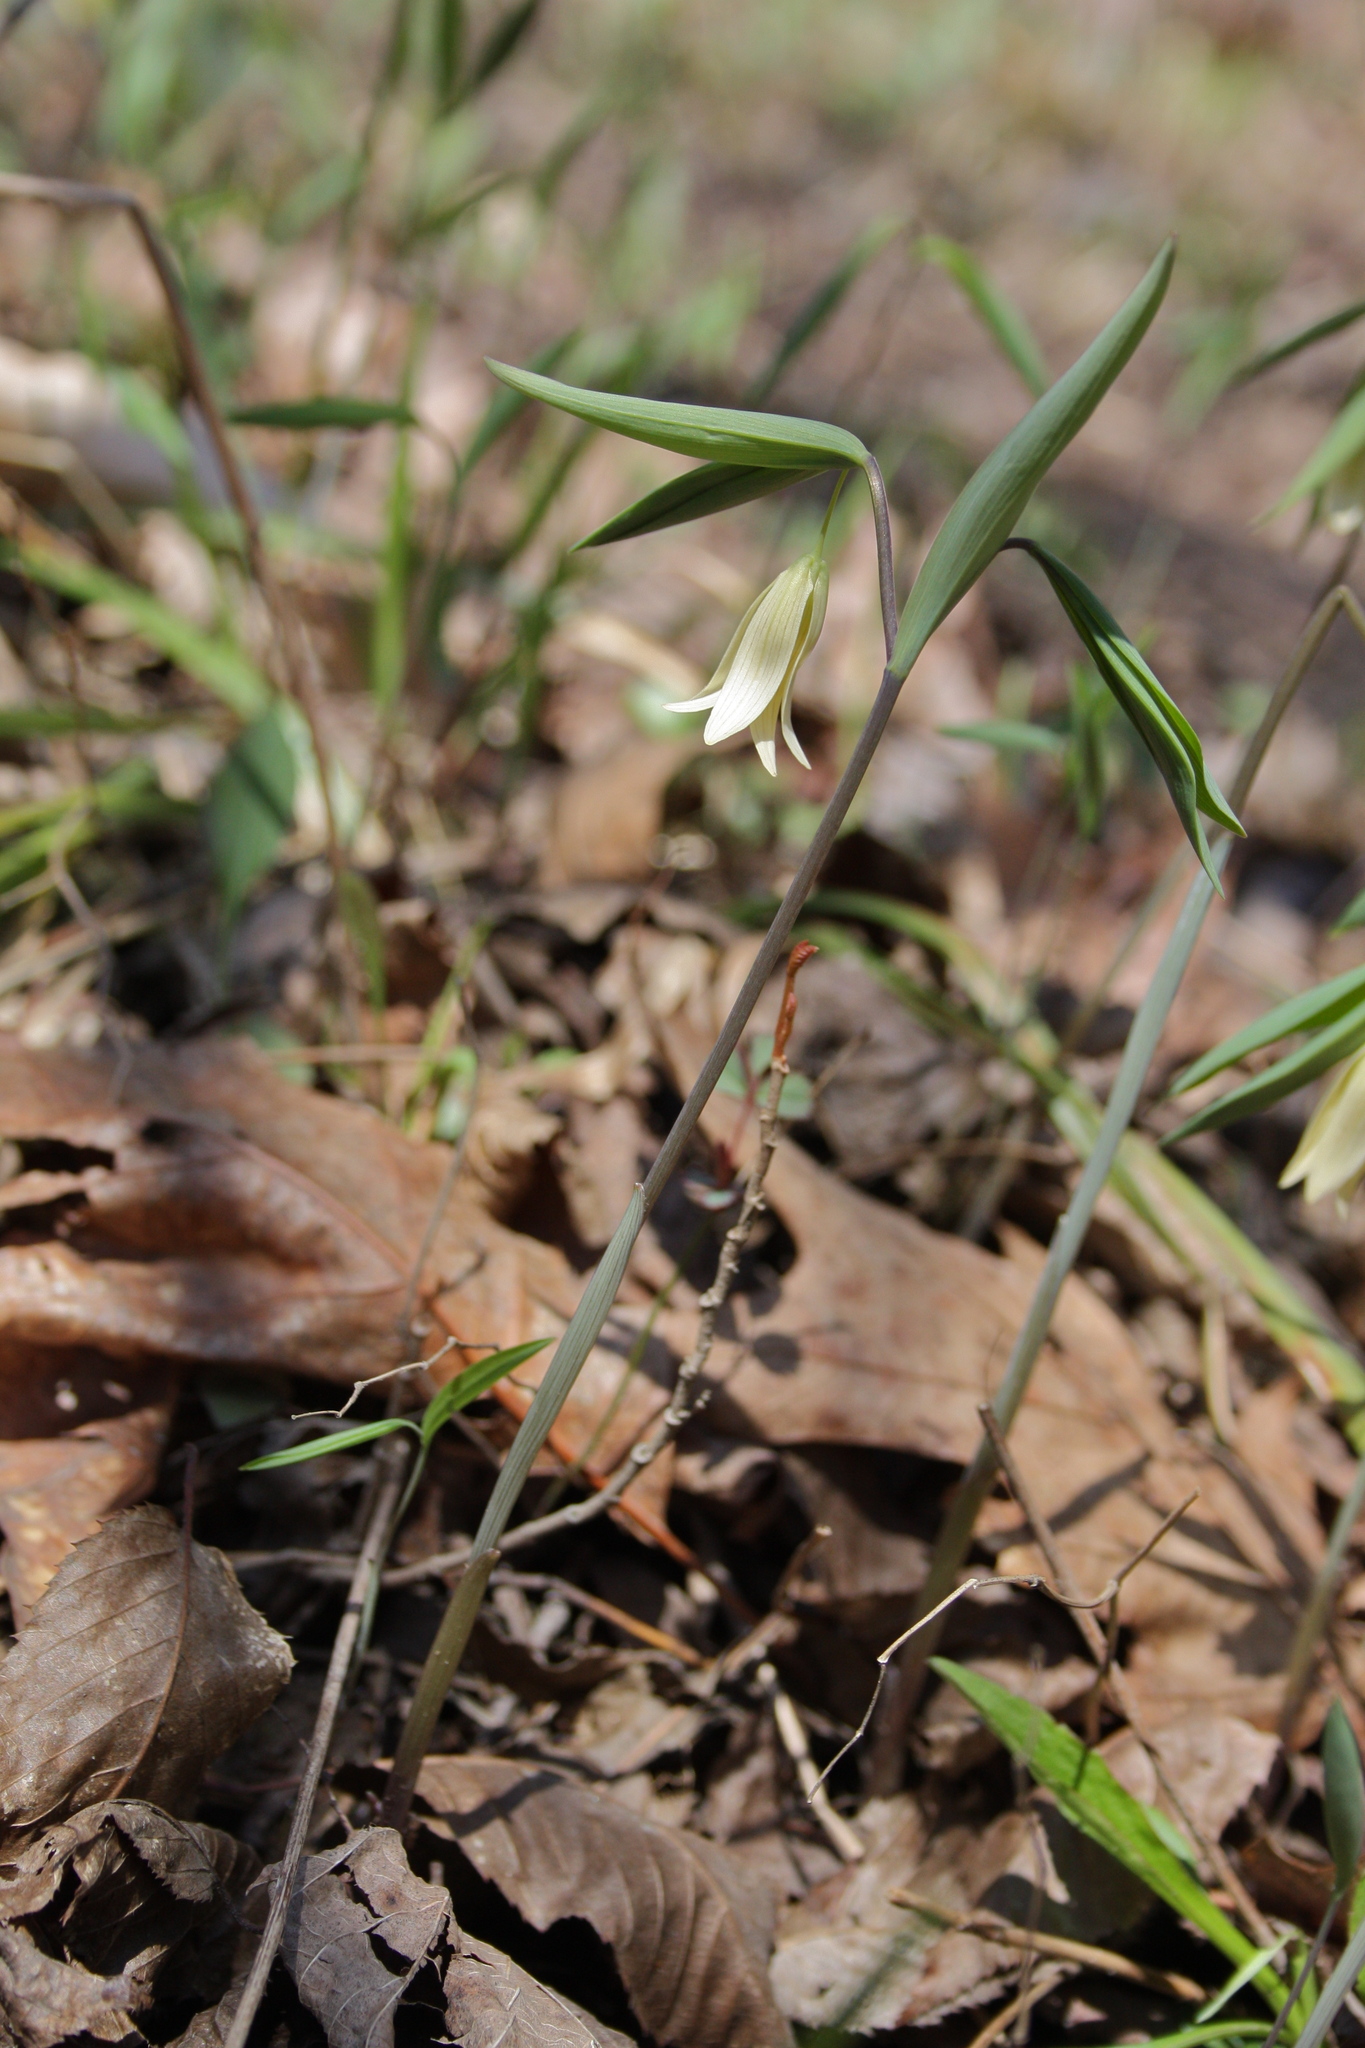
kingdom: Plantae
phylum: Tracheophyta
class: Liliopsida
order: Liliales
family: Colchicaceae
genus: Uvularia
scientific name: Uvularia sessilifolia
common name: Straw-lily
